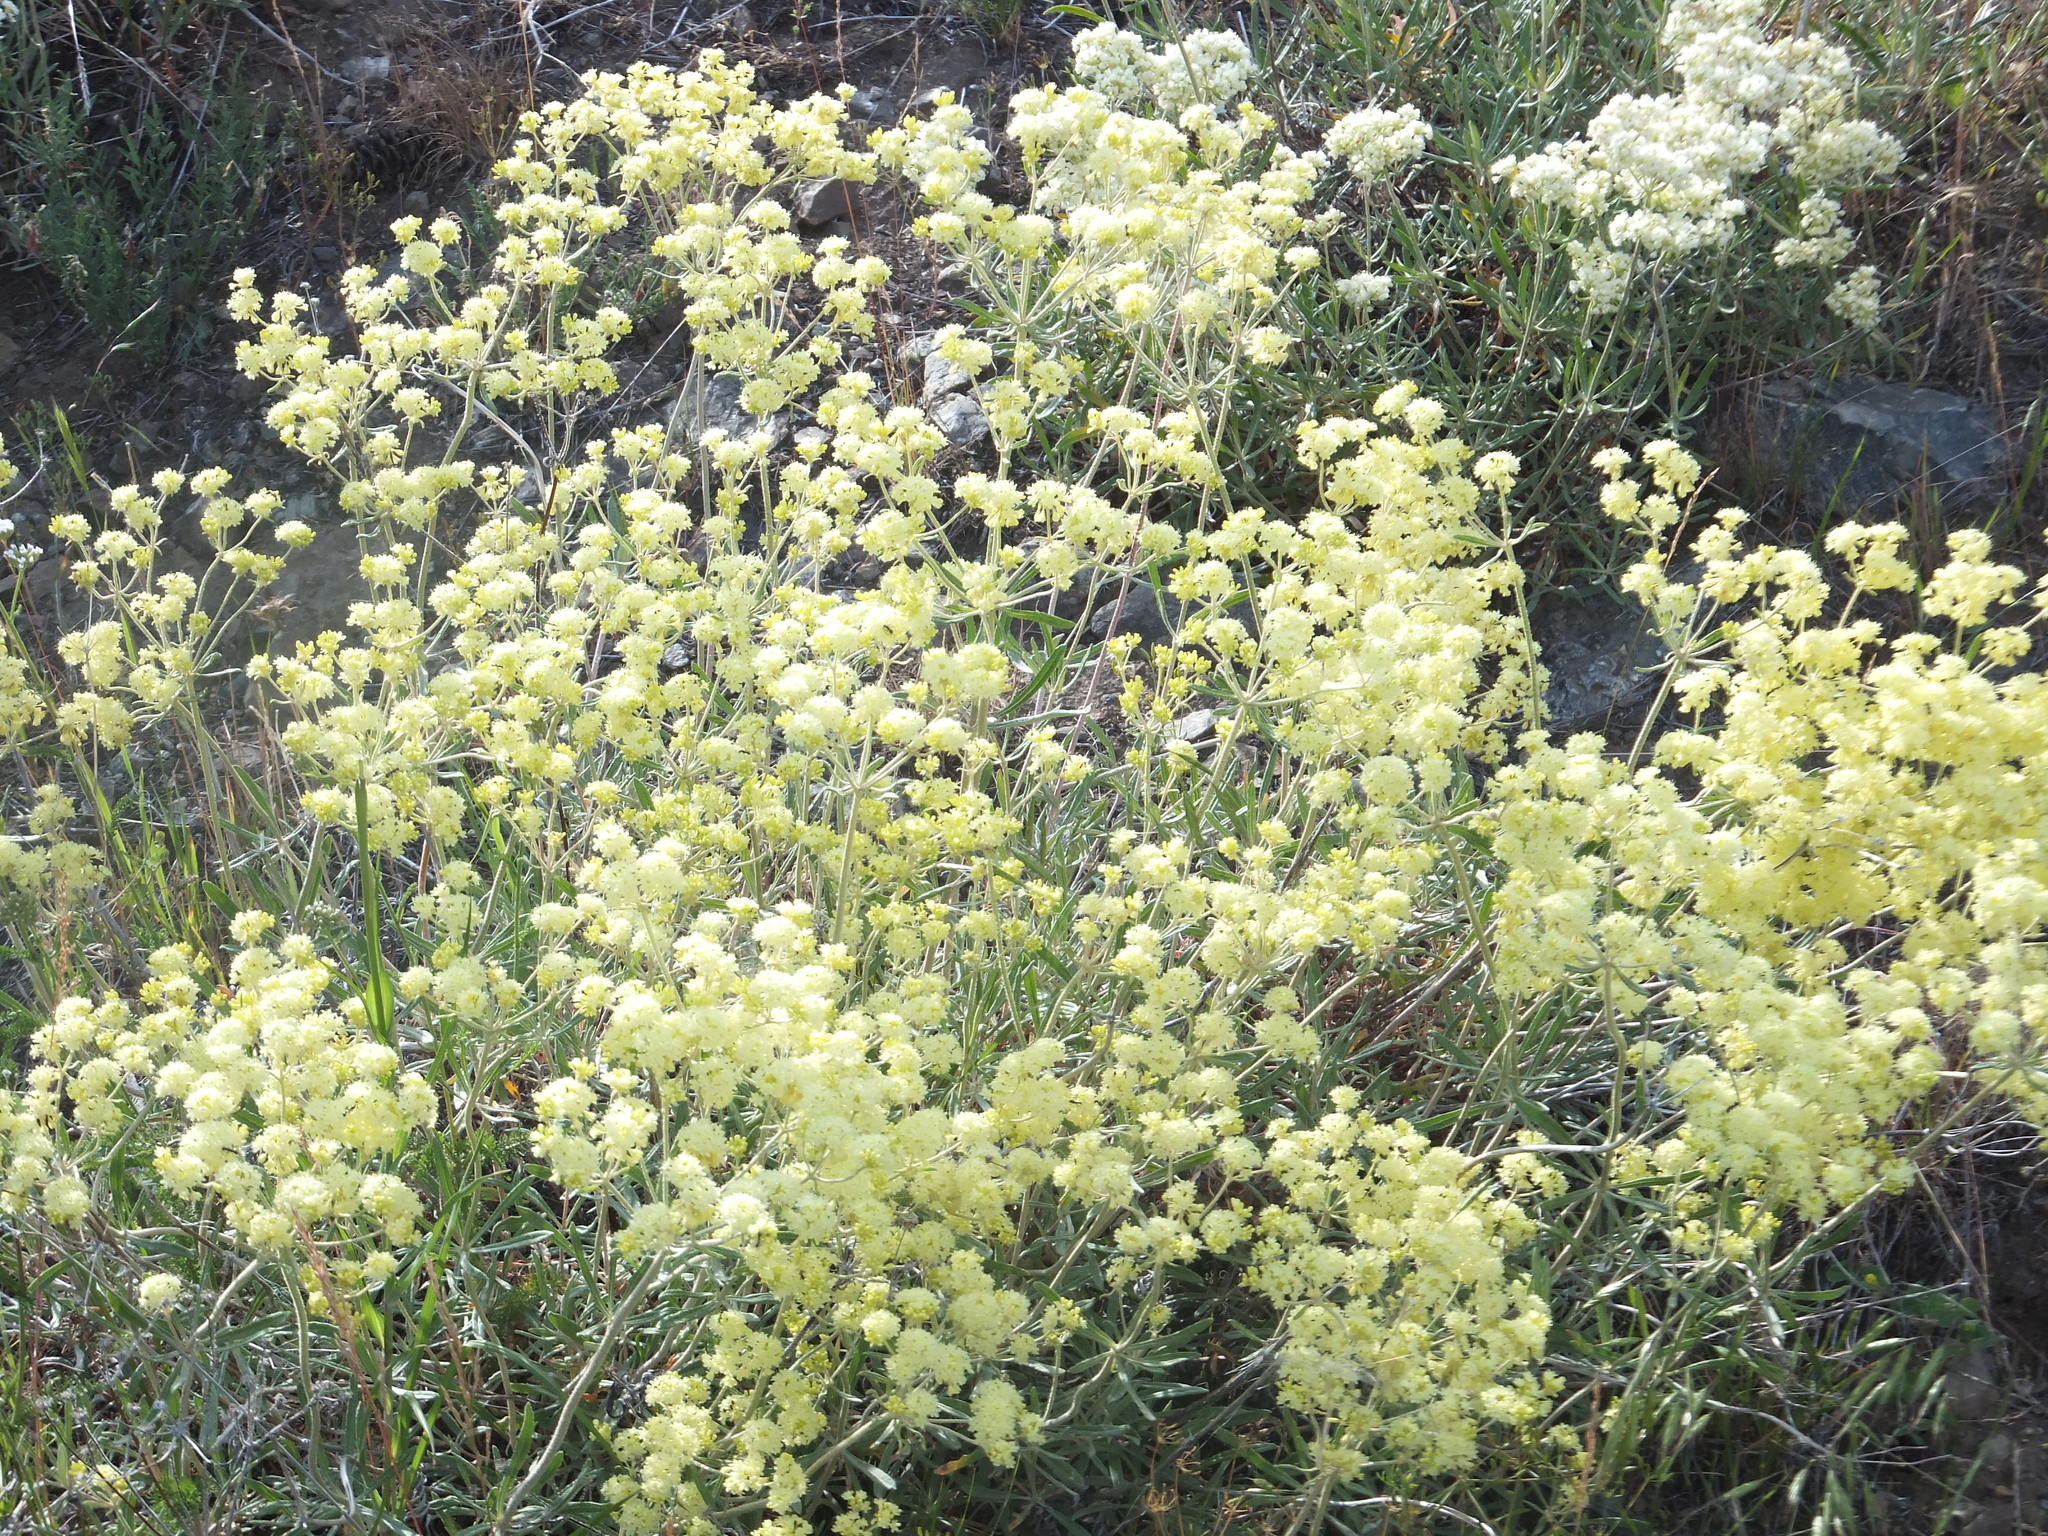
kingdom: Plantae
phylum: Tracheophyta
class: Magnoliopsida
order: Caryophyllales
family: Polygonaceae
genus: Eriogonum
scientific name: Eriogonum heracleoides
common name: Wyeth's buckwheat
